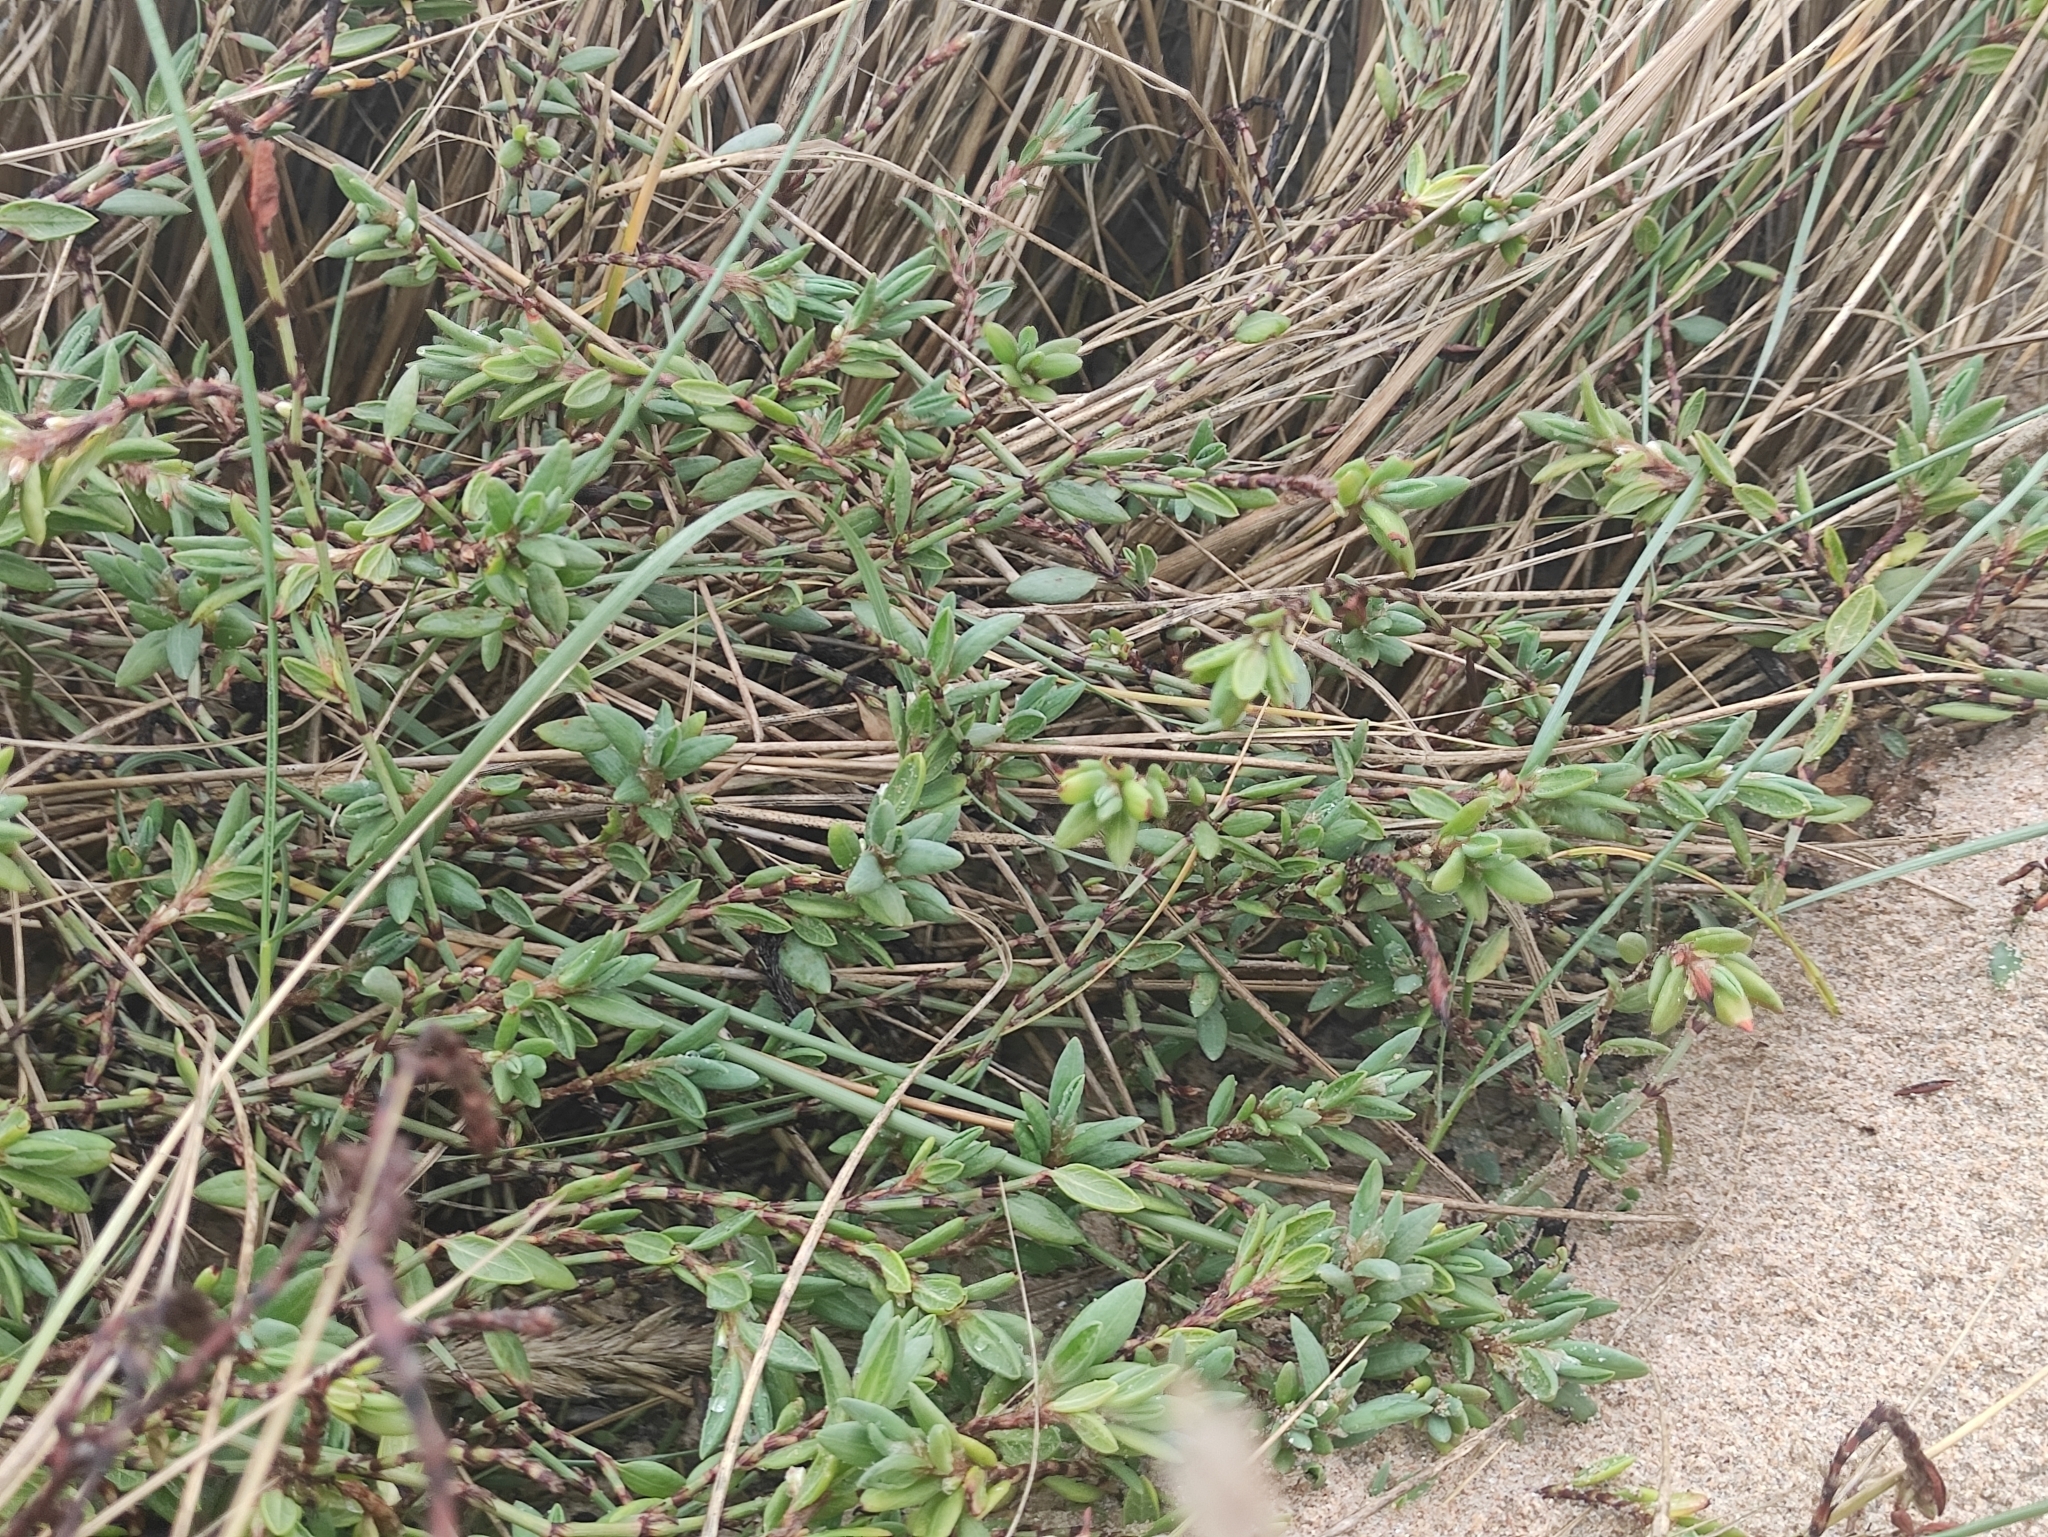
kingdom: Plantae
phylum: Tracheophyta
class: Magnoliopsida
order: Caryophyllales
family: Polygonaceae
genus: Polygonum
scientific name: Polygonum maritimum
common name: Sea knotgrass
